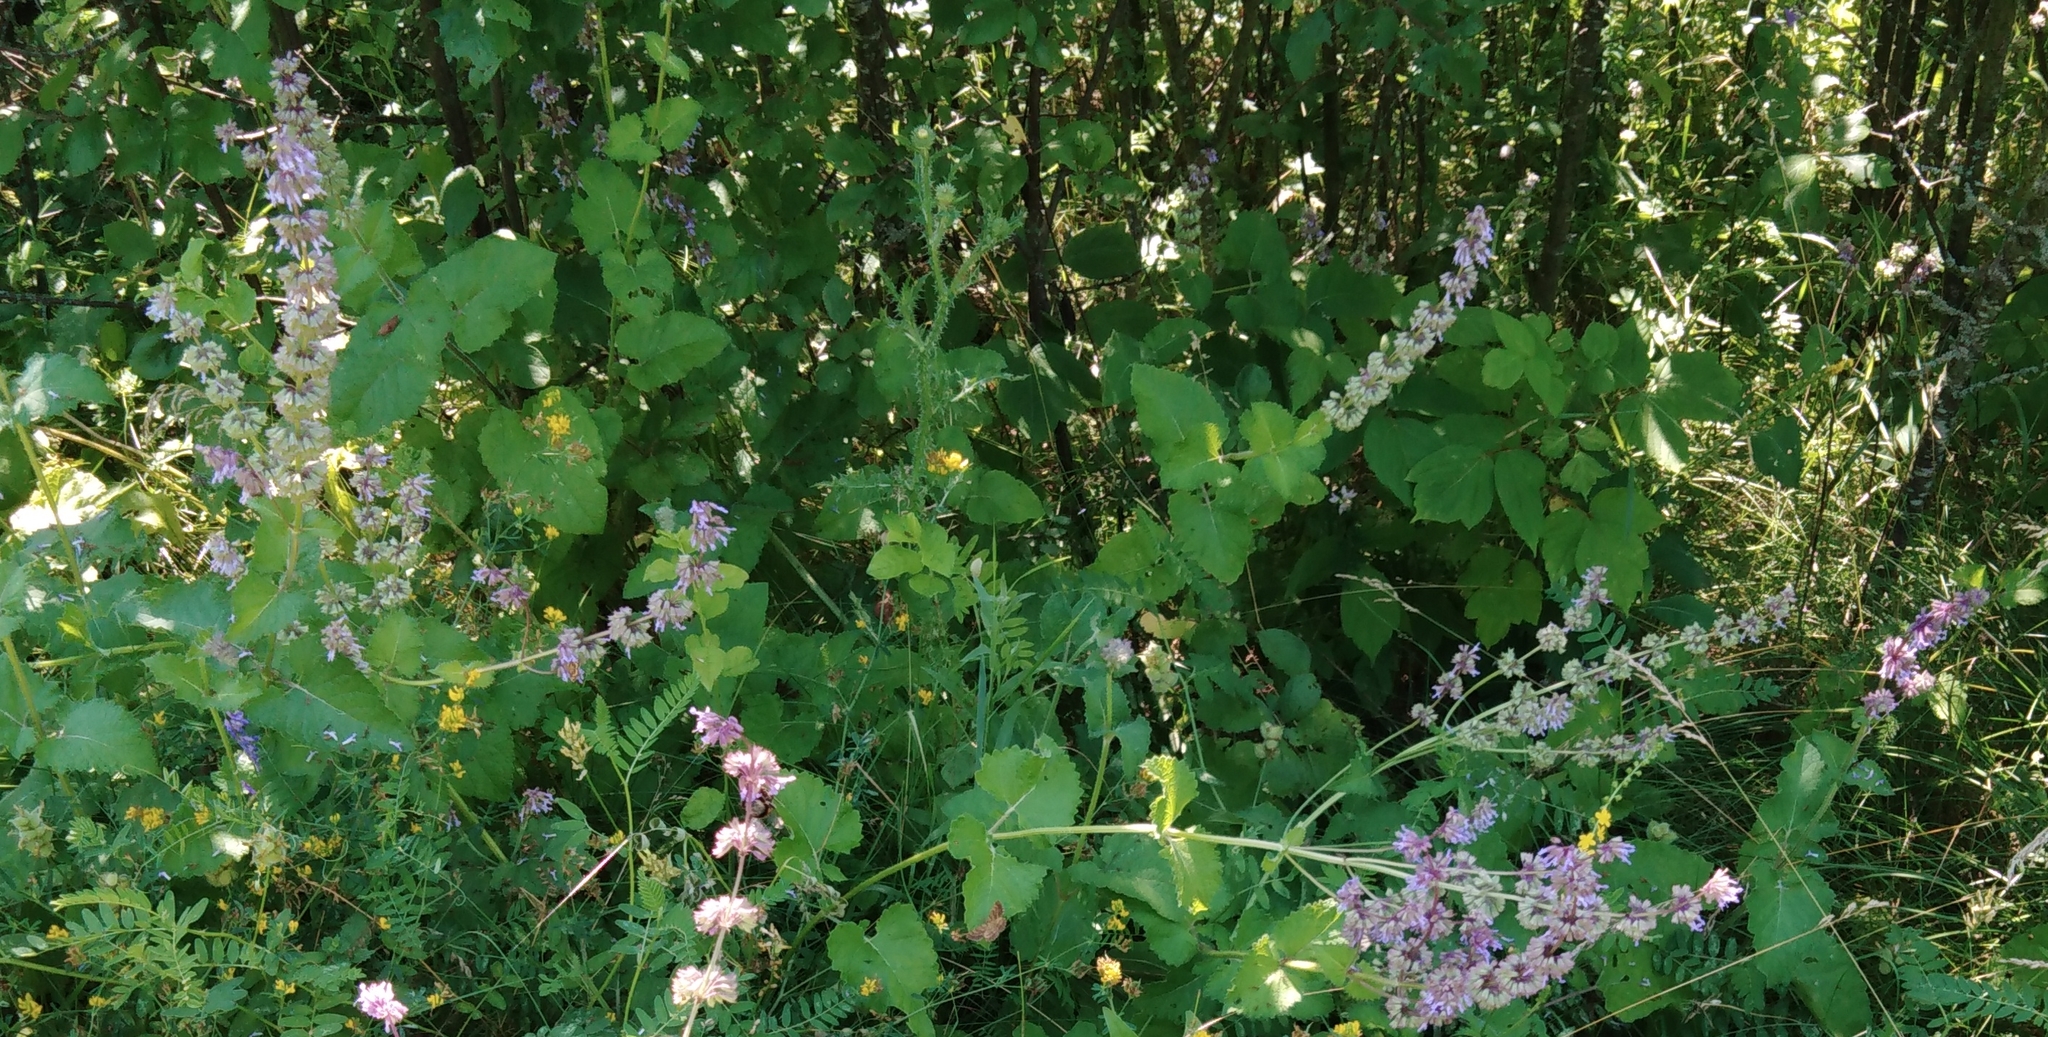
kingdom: Plantae
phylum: Tracheophyta
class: Magnoliopsida
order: Lamiales
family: Lamiaceae
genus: Salvia
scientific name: Salvia verticillata
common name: Whorled clary
